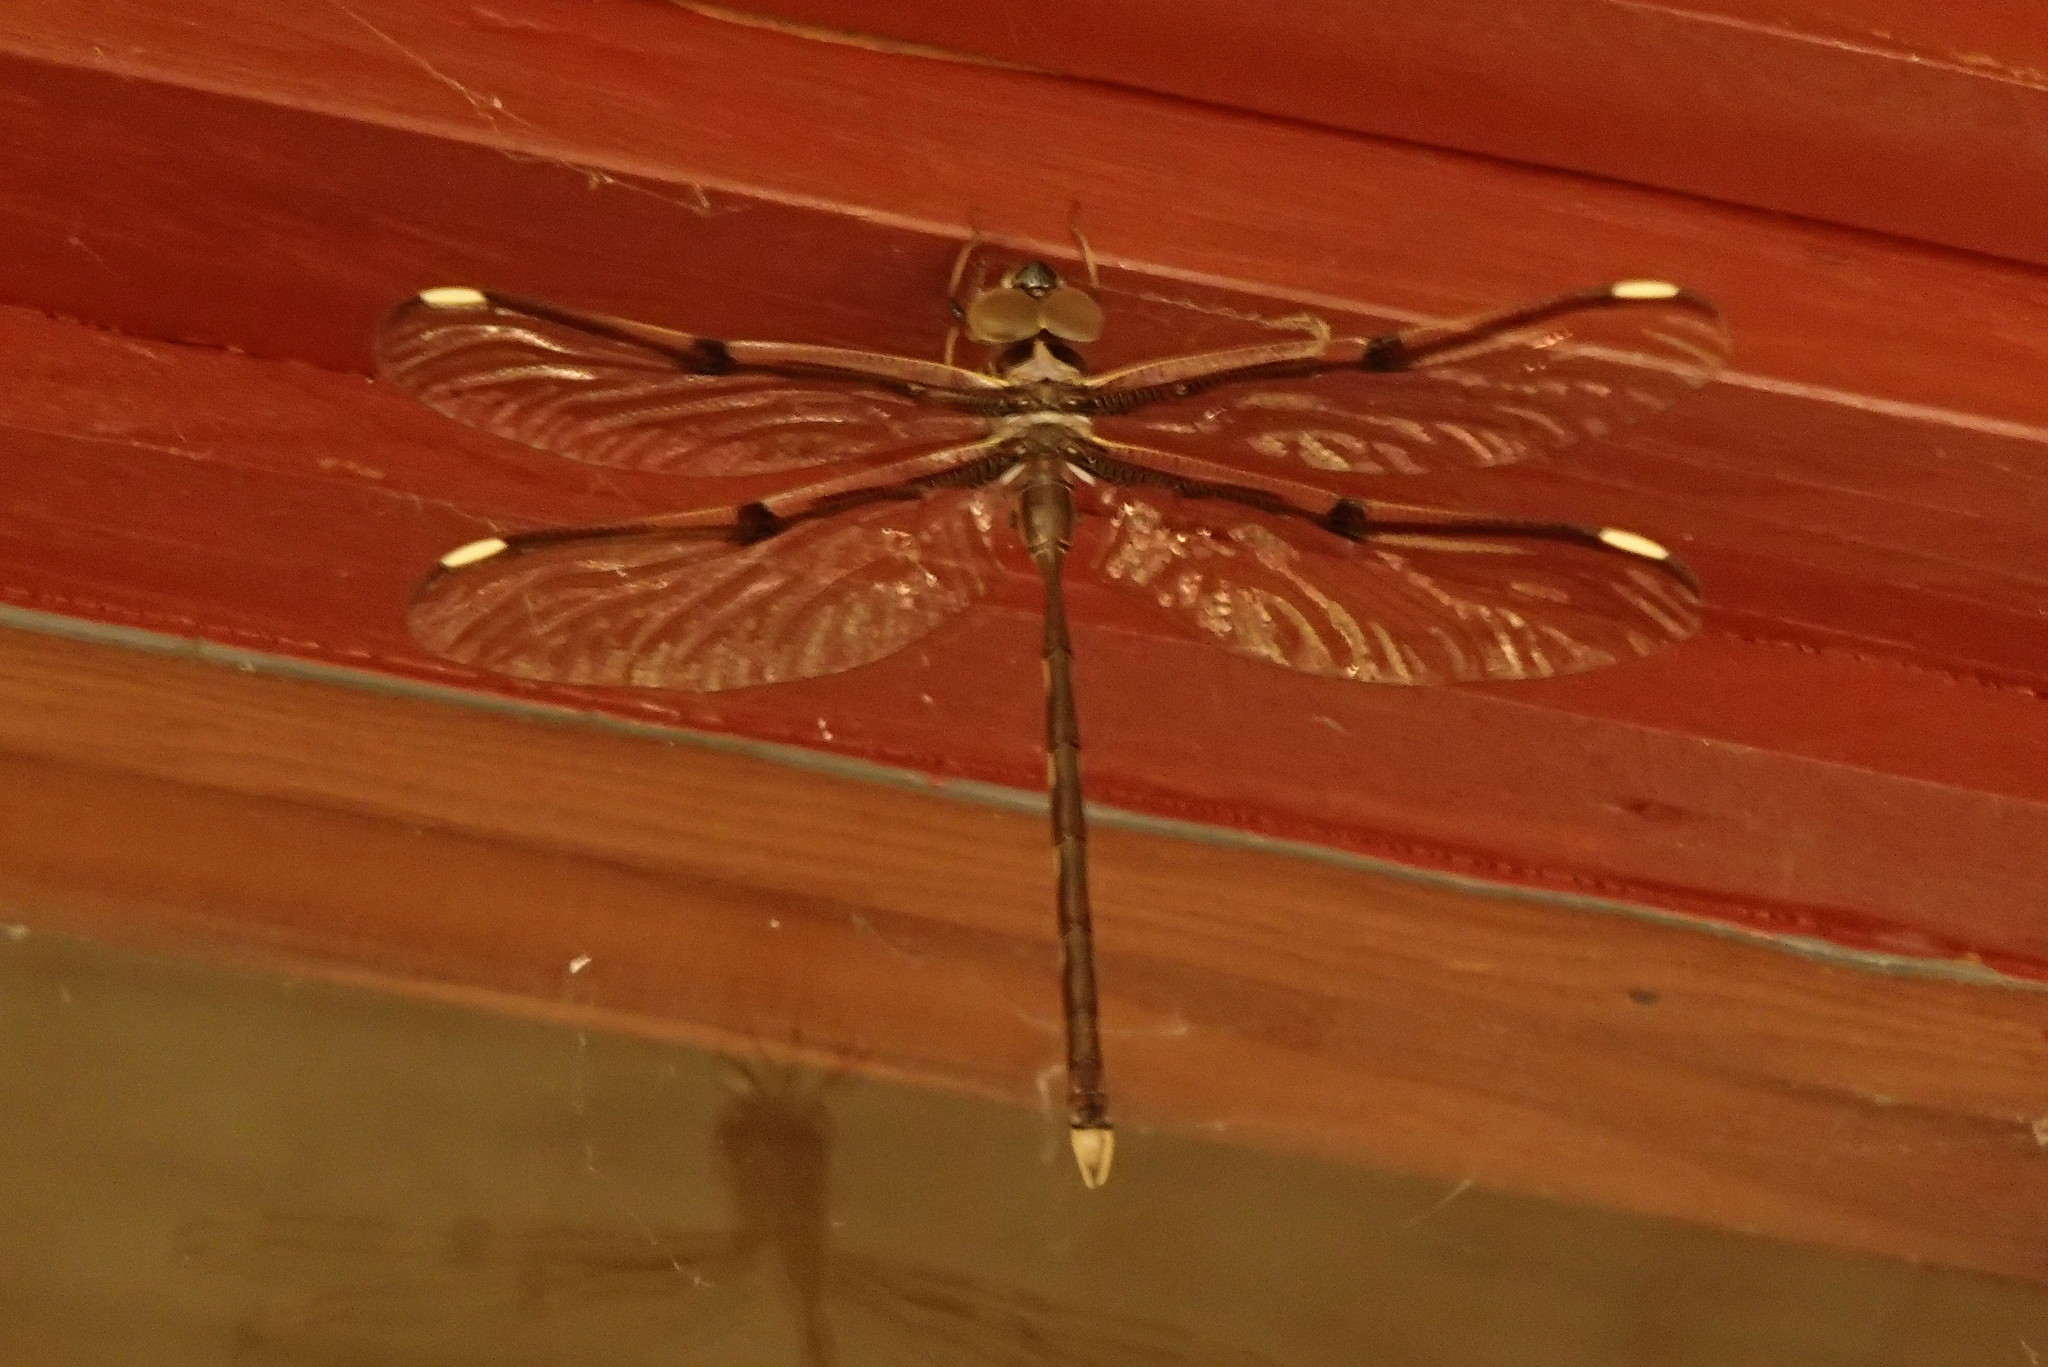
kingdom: Animalia
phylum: Arthropoda
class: Insecta
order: Odonata
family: Aeshnidae
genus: Telephlebia
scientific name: Telephlebia godeffroyi
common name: Eastern evening darner
